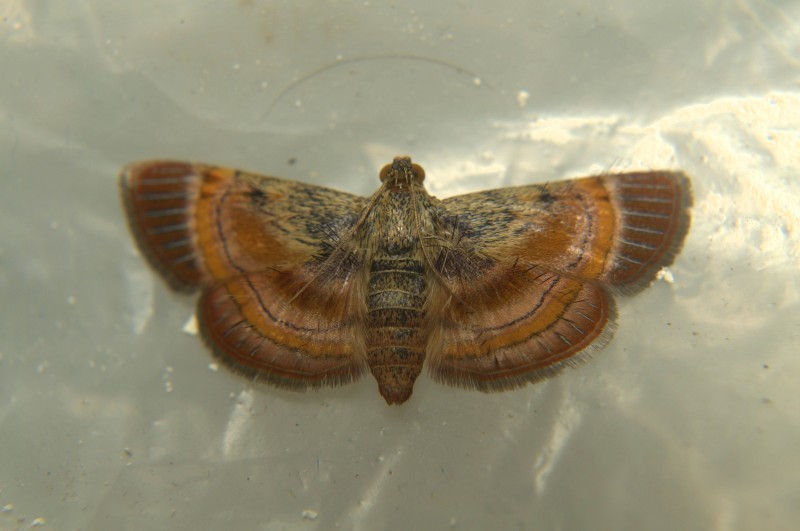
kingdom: Animalia
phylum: Arthropoda
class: Insecta
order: Lepidoptera
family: Pyralidae
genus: Lista
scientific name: Lista ficki
